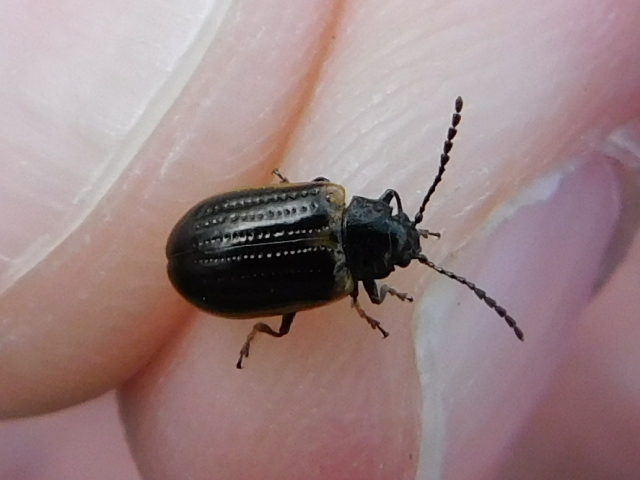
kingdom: Animalia
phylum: Arthropoda
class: Insecta
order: Coleoptera
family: Chrysomelidae
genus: Microtheca
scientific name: Microtheca ochroloma
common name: Leaf beetle
